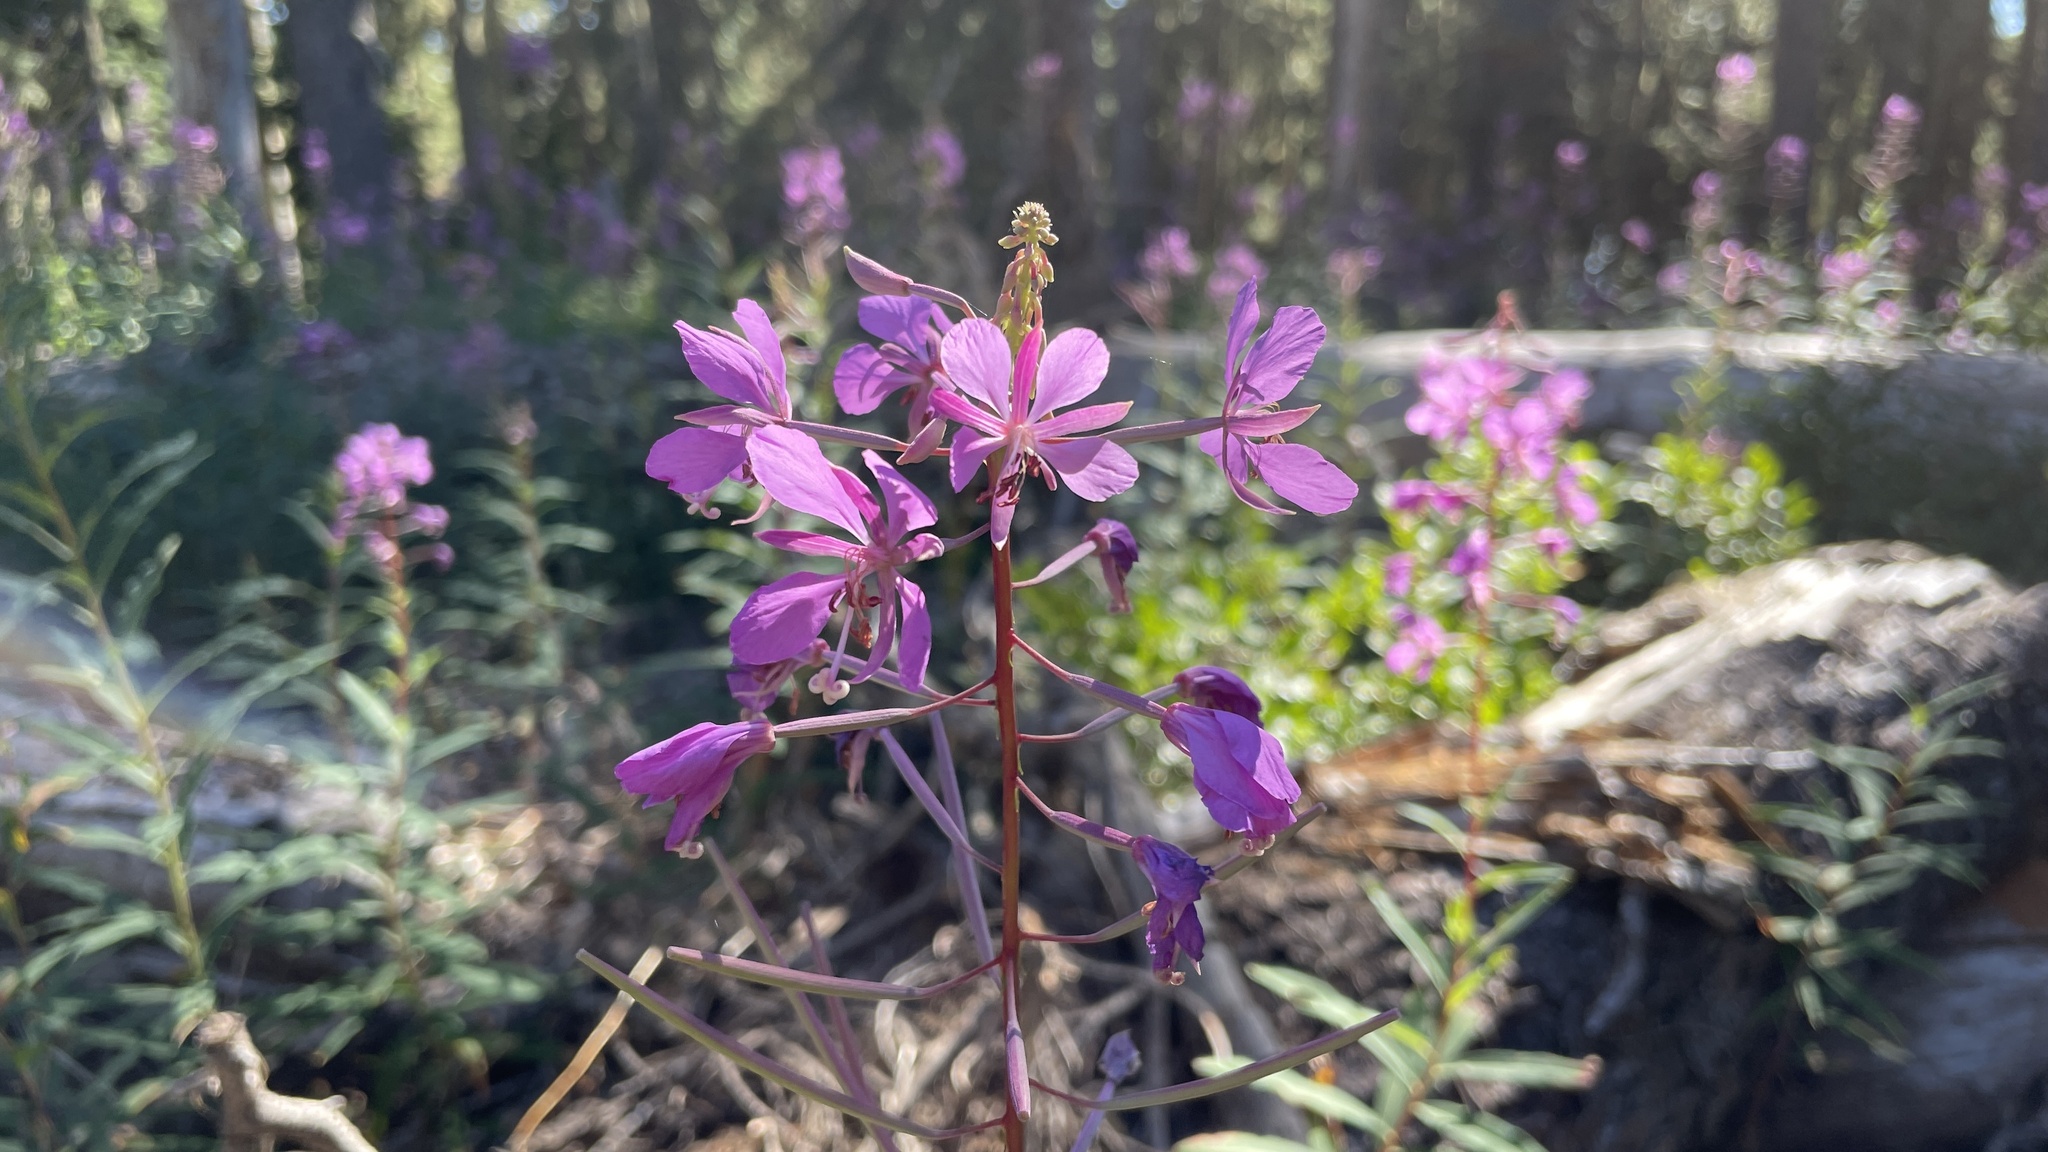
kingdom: Plantae
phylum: Tracheophyta
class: Magnoliopsida
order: Myrtales
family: Onagraceae
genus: Chamaenerion
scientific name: Chamaenerion angustifolium
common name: Fireweed
